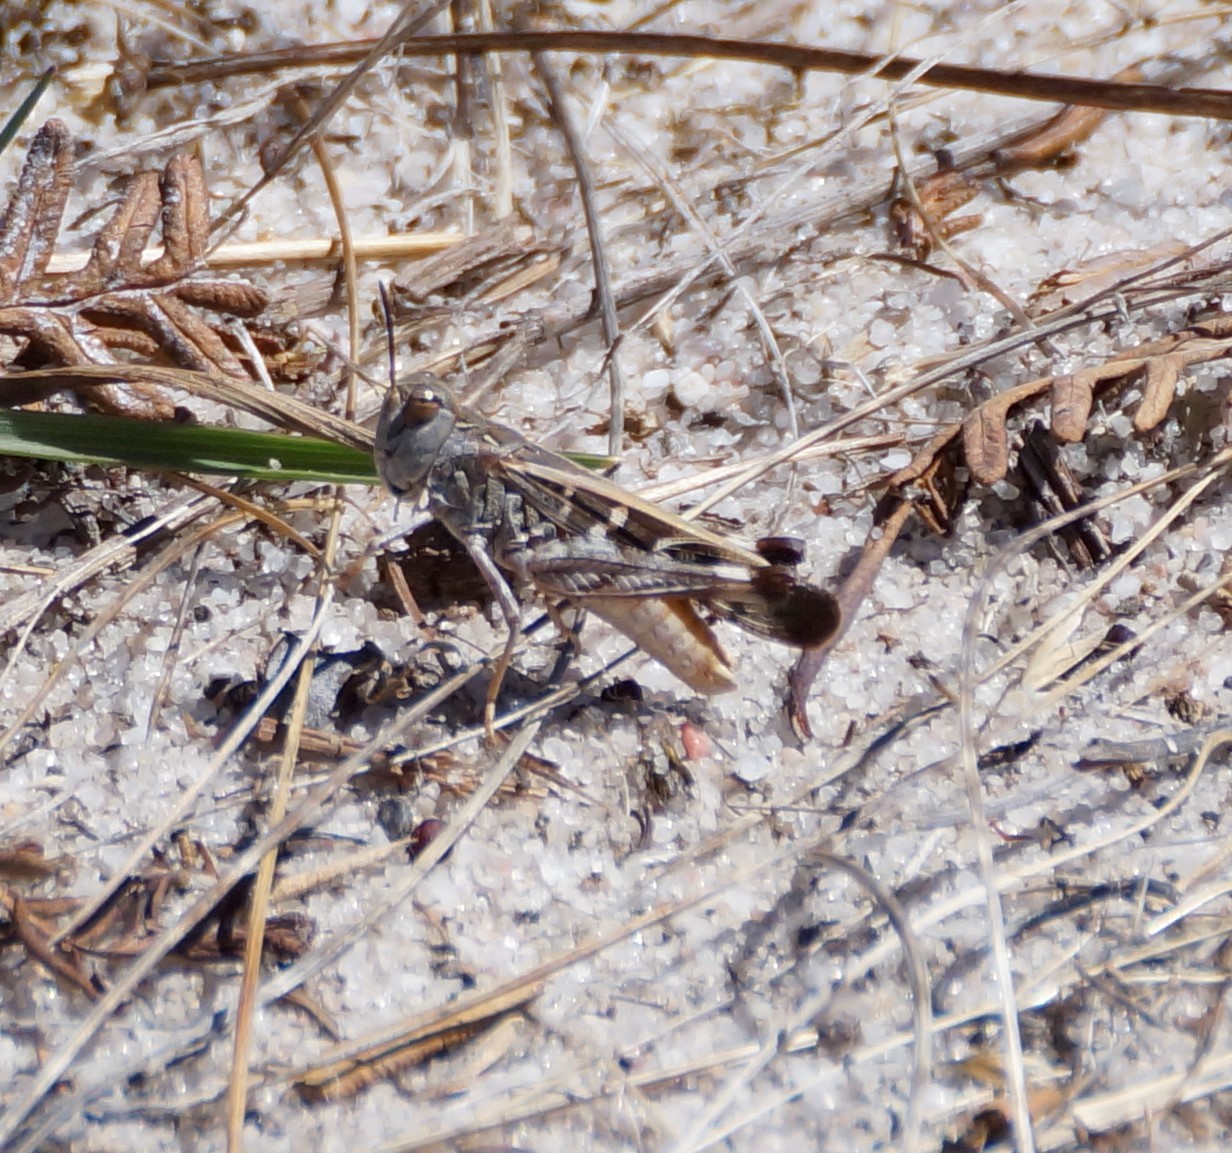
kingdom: Animalia
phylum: Arthropoda
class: Insecta
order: Orthoptera
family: Acrididae
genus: Oedaleus
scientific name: Oedaleus australis
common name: Eastern oedaleus
